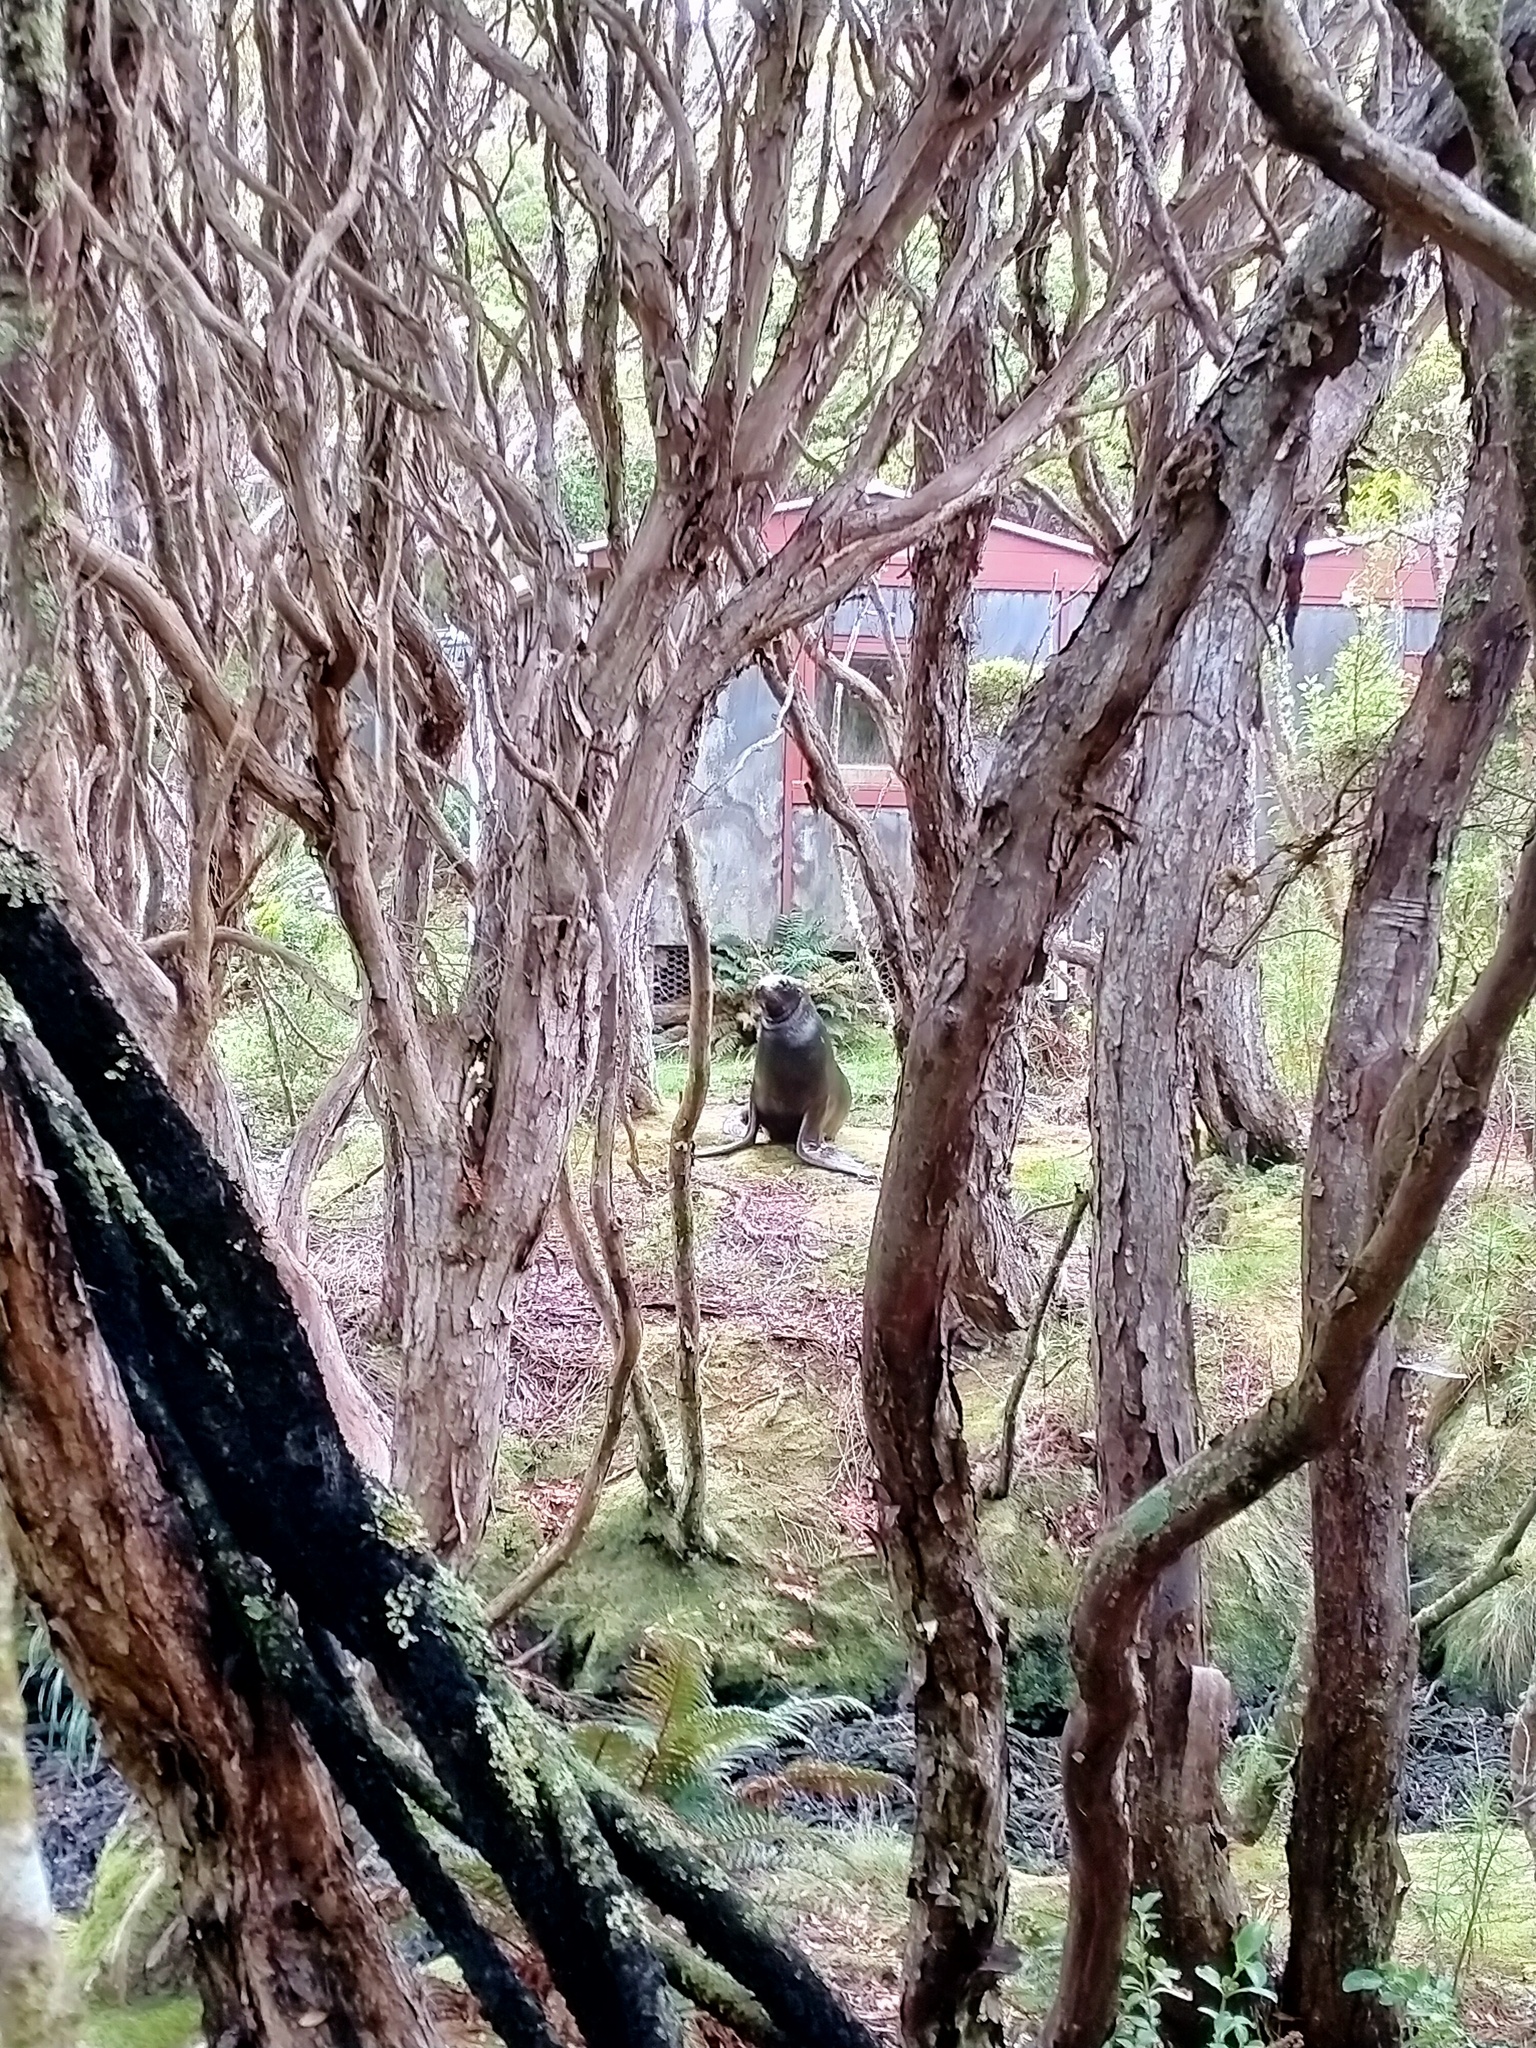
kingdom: Animalia
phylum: Chordata
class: Mammalia
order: Carnivora
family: Otariidae
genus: Phocarctos
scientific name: Phocarctos hookeri
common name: New zealand sea lion
